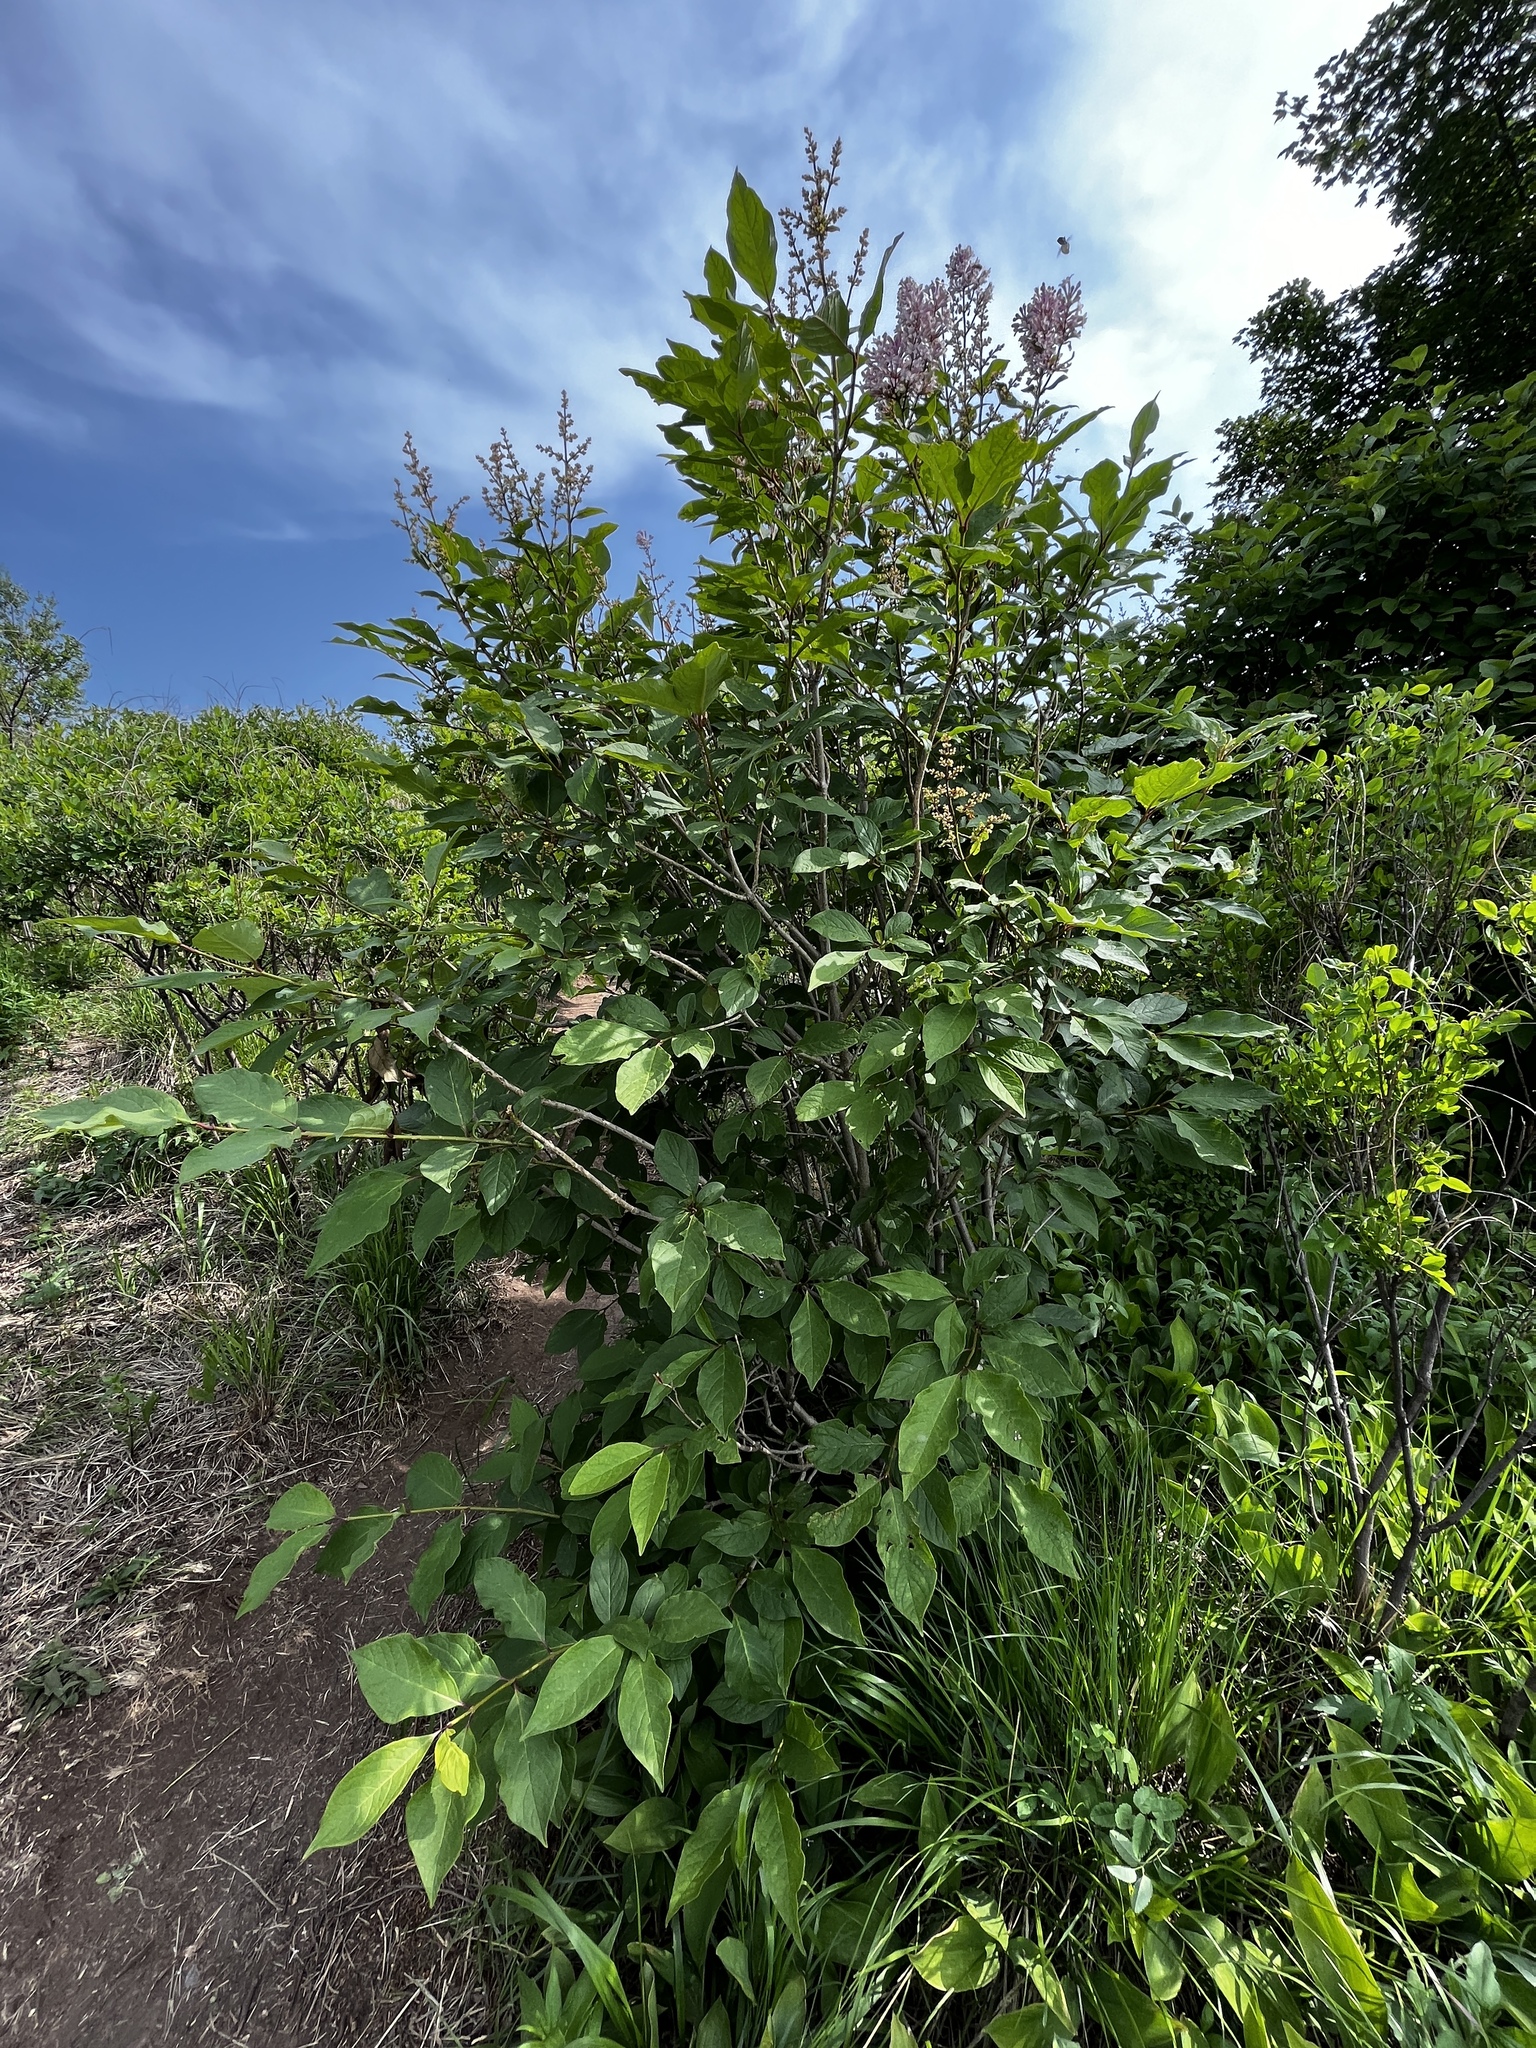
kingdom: Plantae
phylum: Tracheophyta
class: Magnoliopsida
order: Lamiales
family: Oleaceae
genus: Syringa
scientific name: Syringa villosa
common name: Villous lilac
